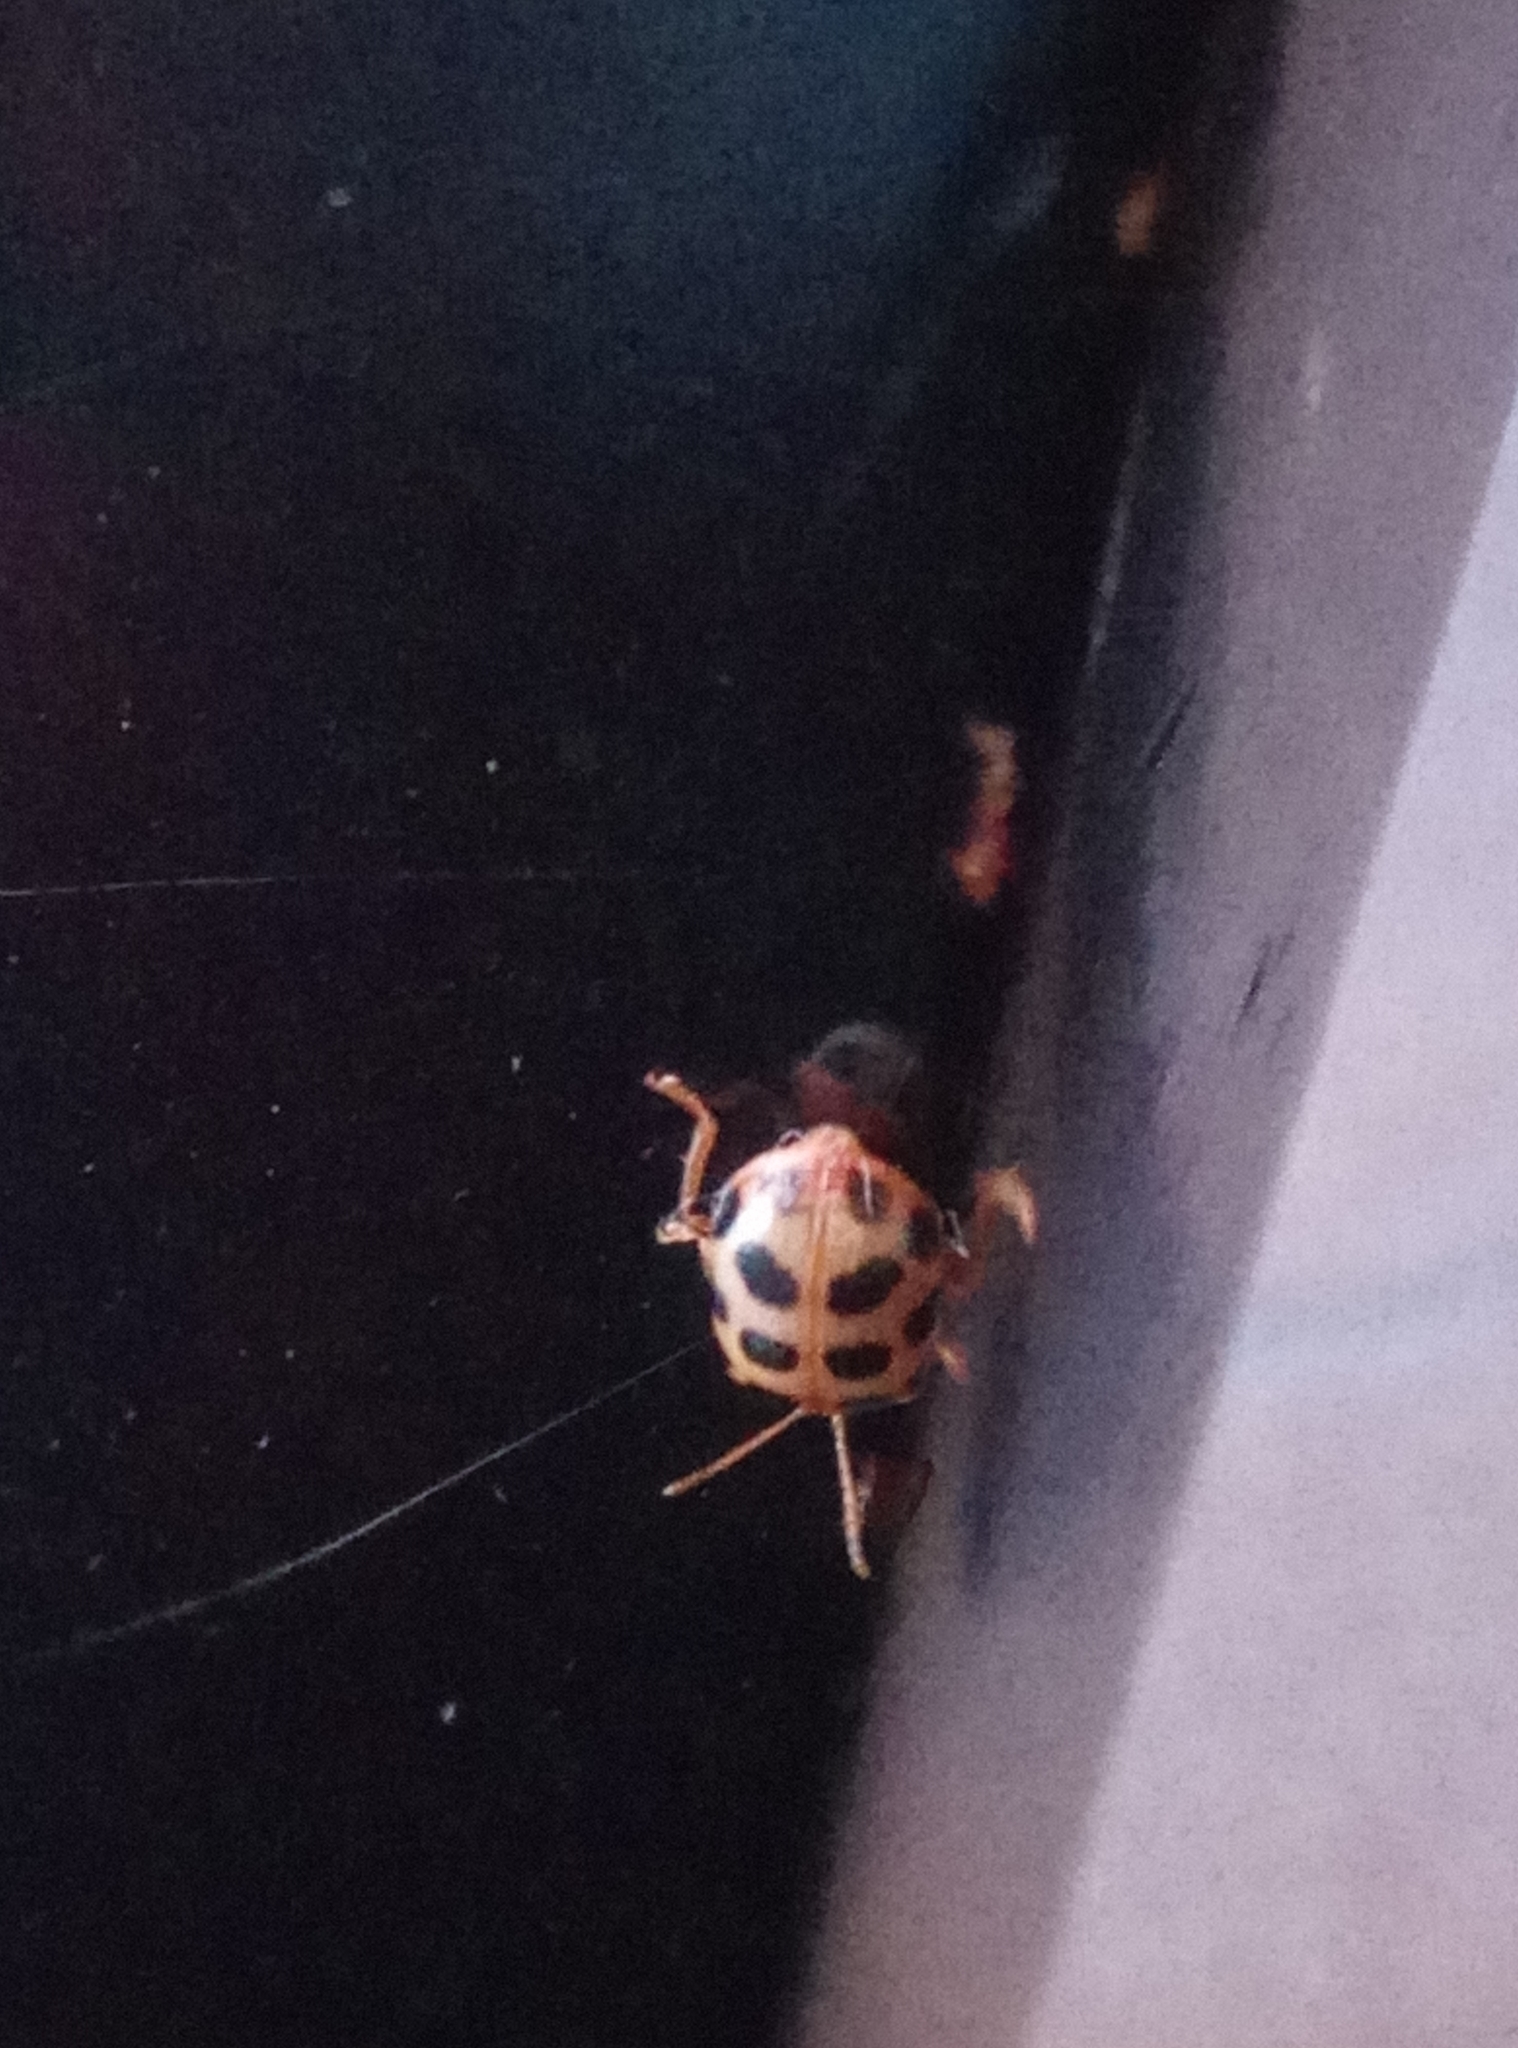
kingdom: Animalia
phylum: Arthropoda
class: Insecta
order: Coleoptera
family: Chrysomelidae
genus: Sphenoraia
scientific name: Sphenoraia nebulosa
